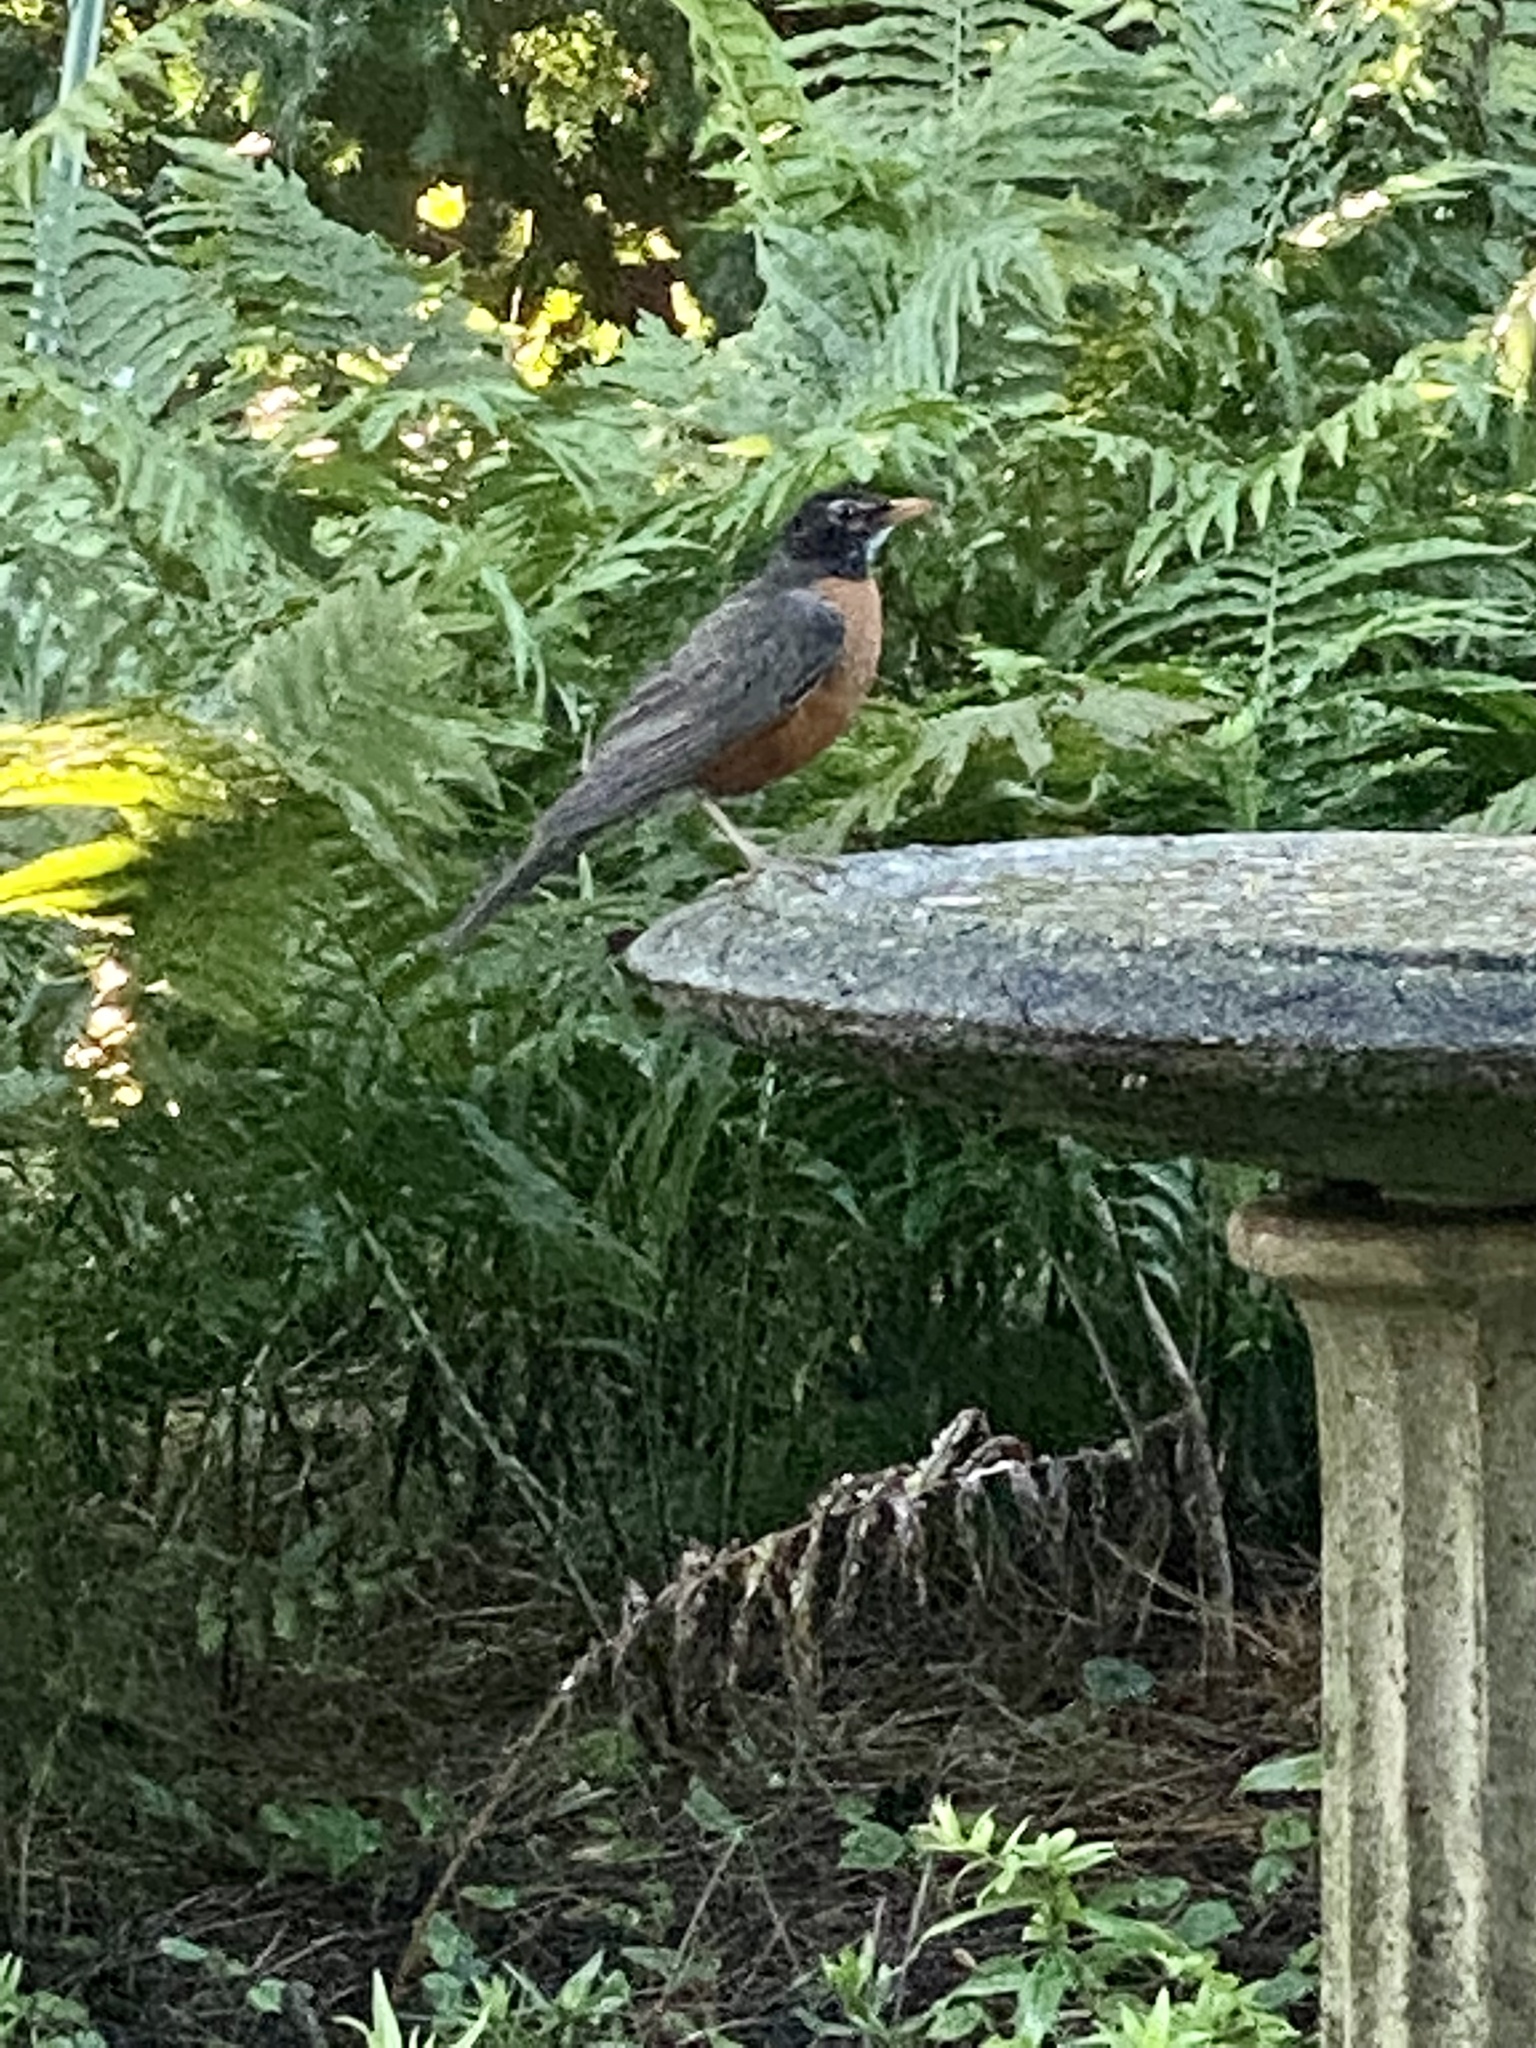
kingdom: Animalia
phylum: Chordata
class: Aves
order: Passeriformes
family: Turdidae
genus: Turdus
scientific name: Turdus migratorius
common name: American robin
